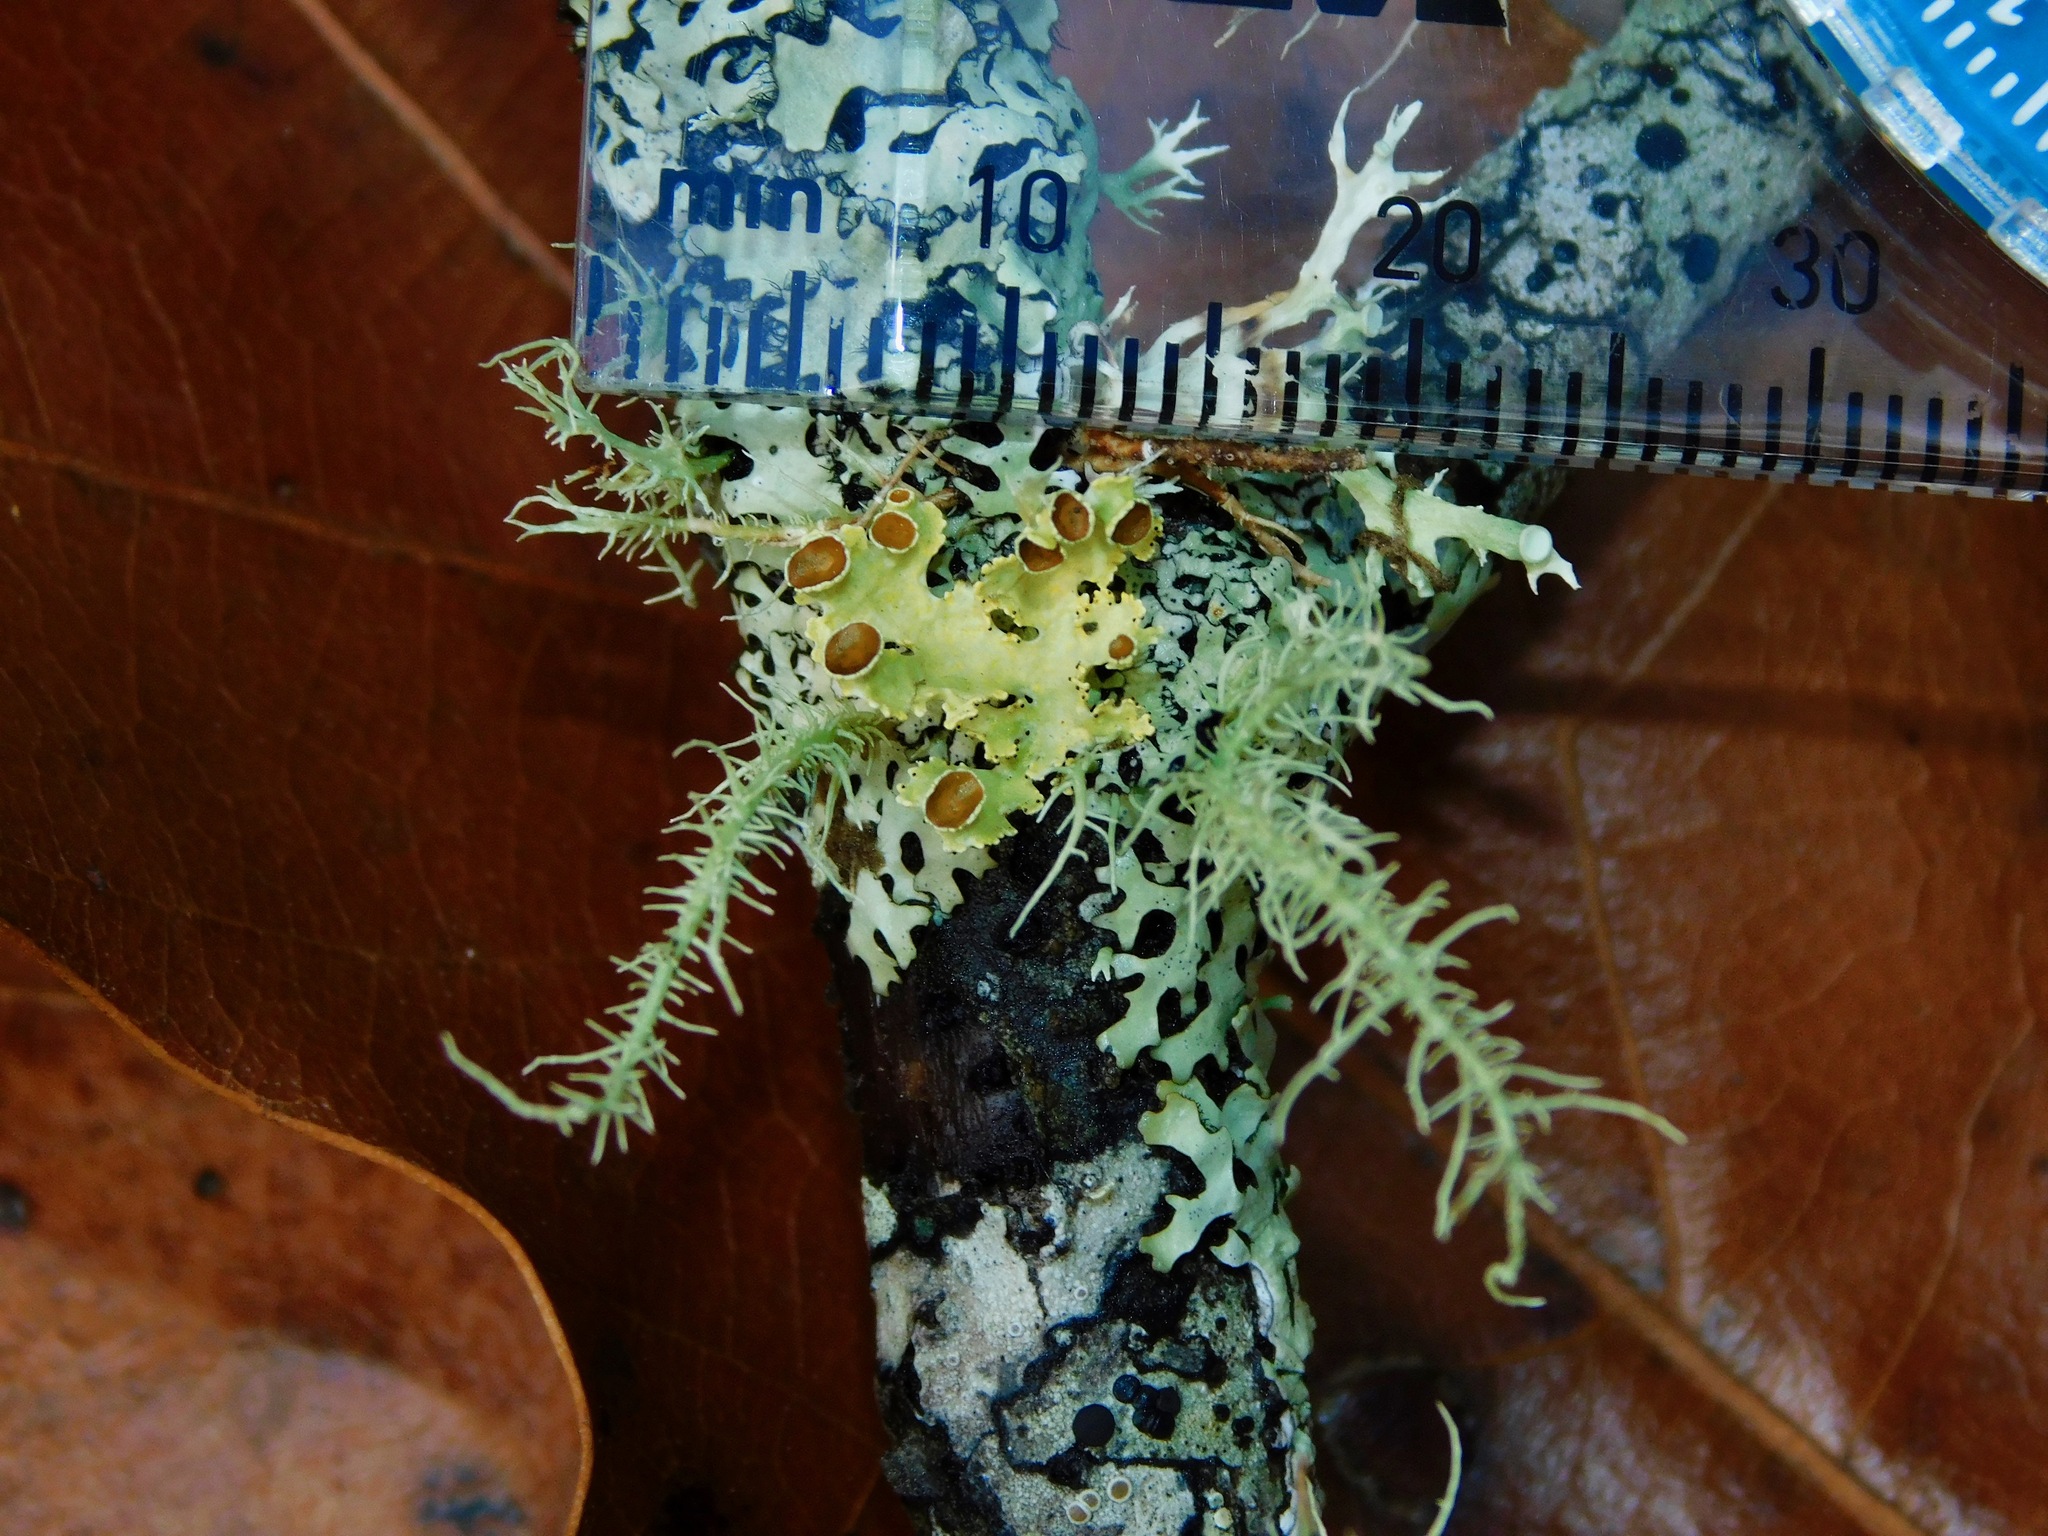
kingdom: Fungi
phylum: Ascomycota
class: Lecanoromycetes
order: Lecanorales
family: Parmeliaceae
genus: Vulpicida
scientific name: Vulpicida viridis
